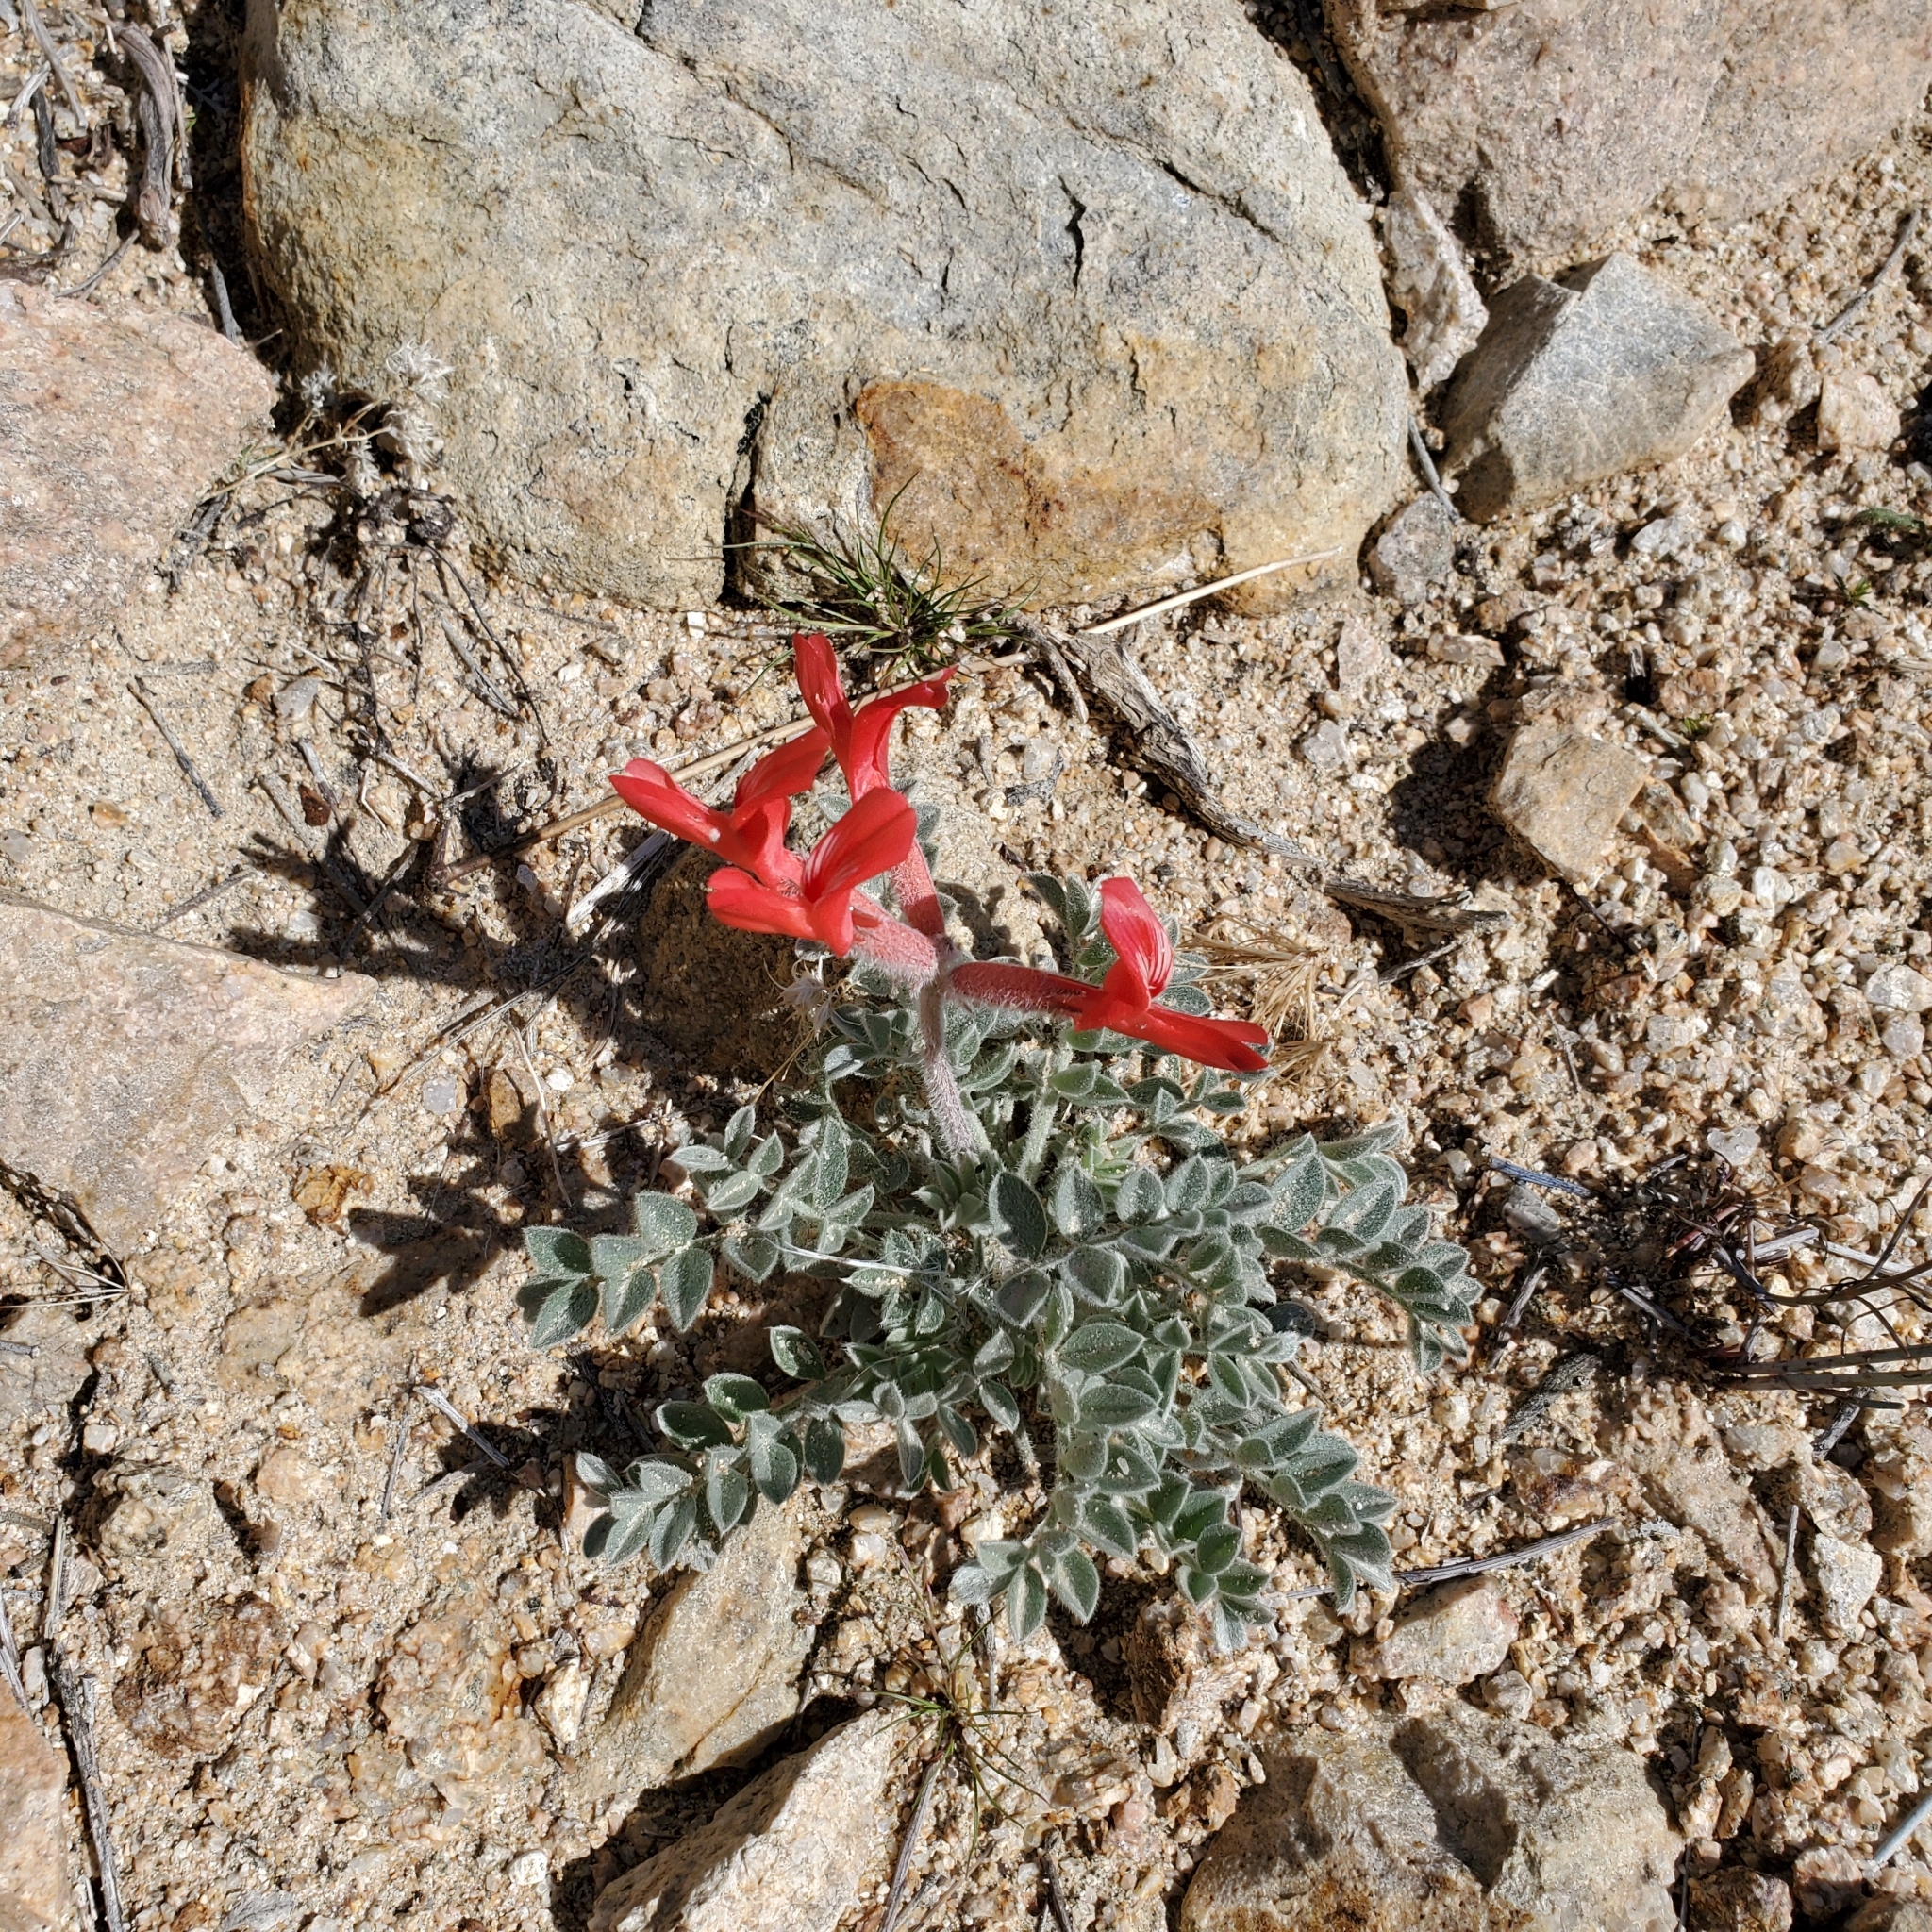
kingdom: Plantae
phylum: Tracheophyta
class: Magnoliopsida
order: Fabales
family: Fabaceae
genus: Astragalus
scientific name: Astragalus coccineus
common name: Scarlet milk-vetch
